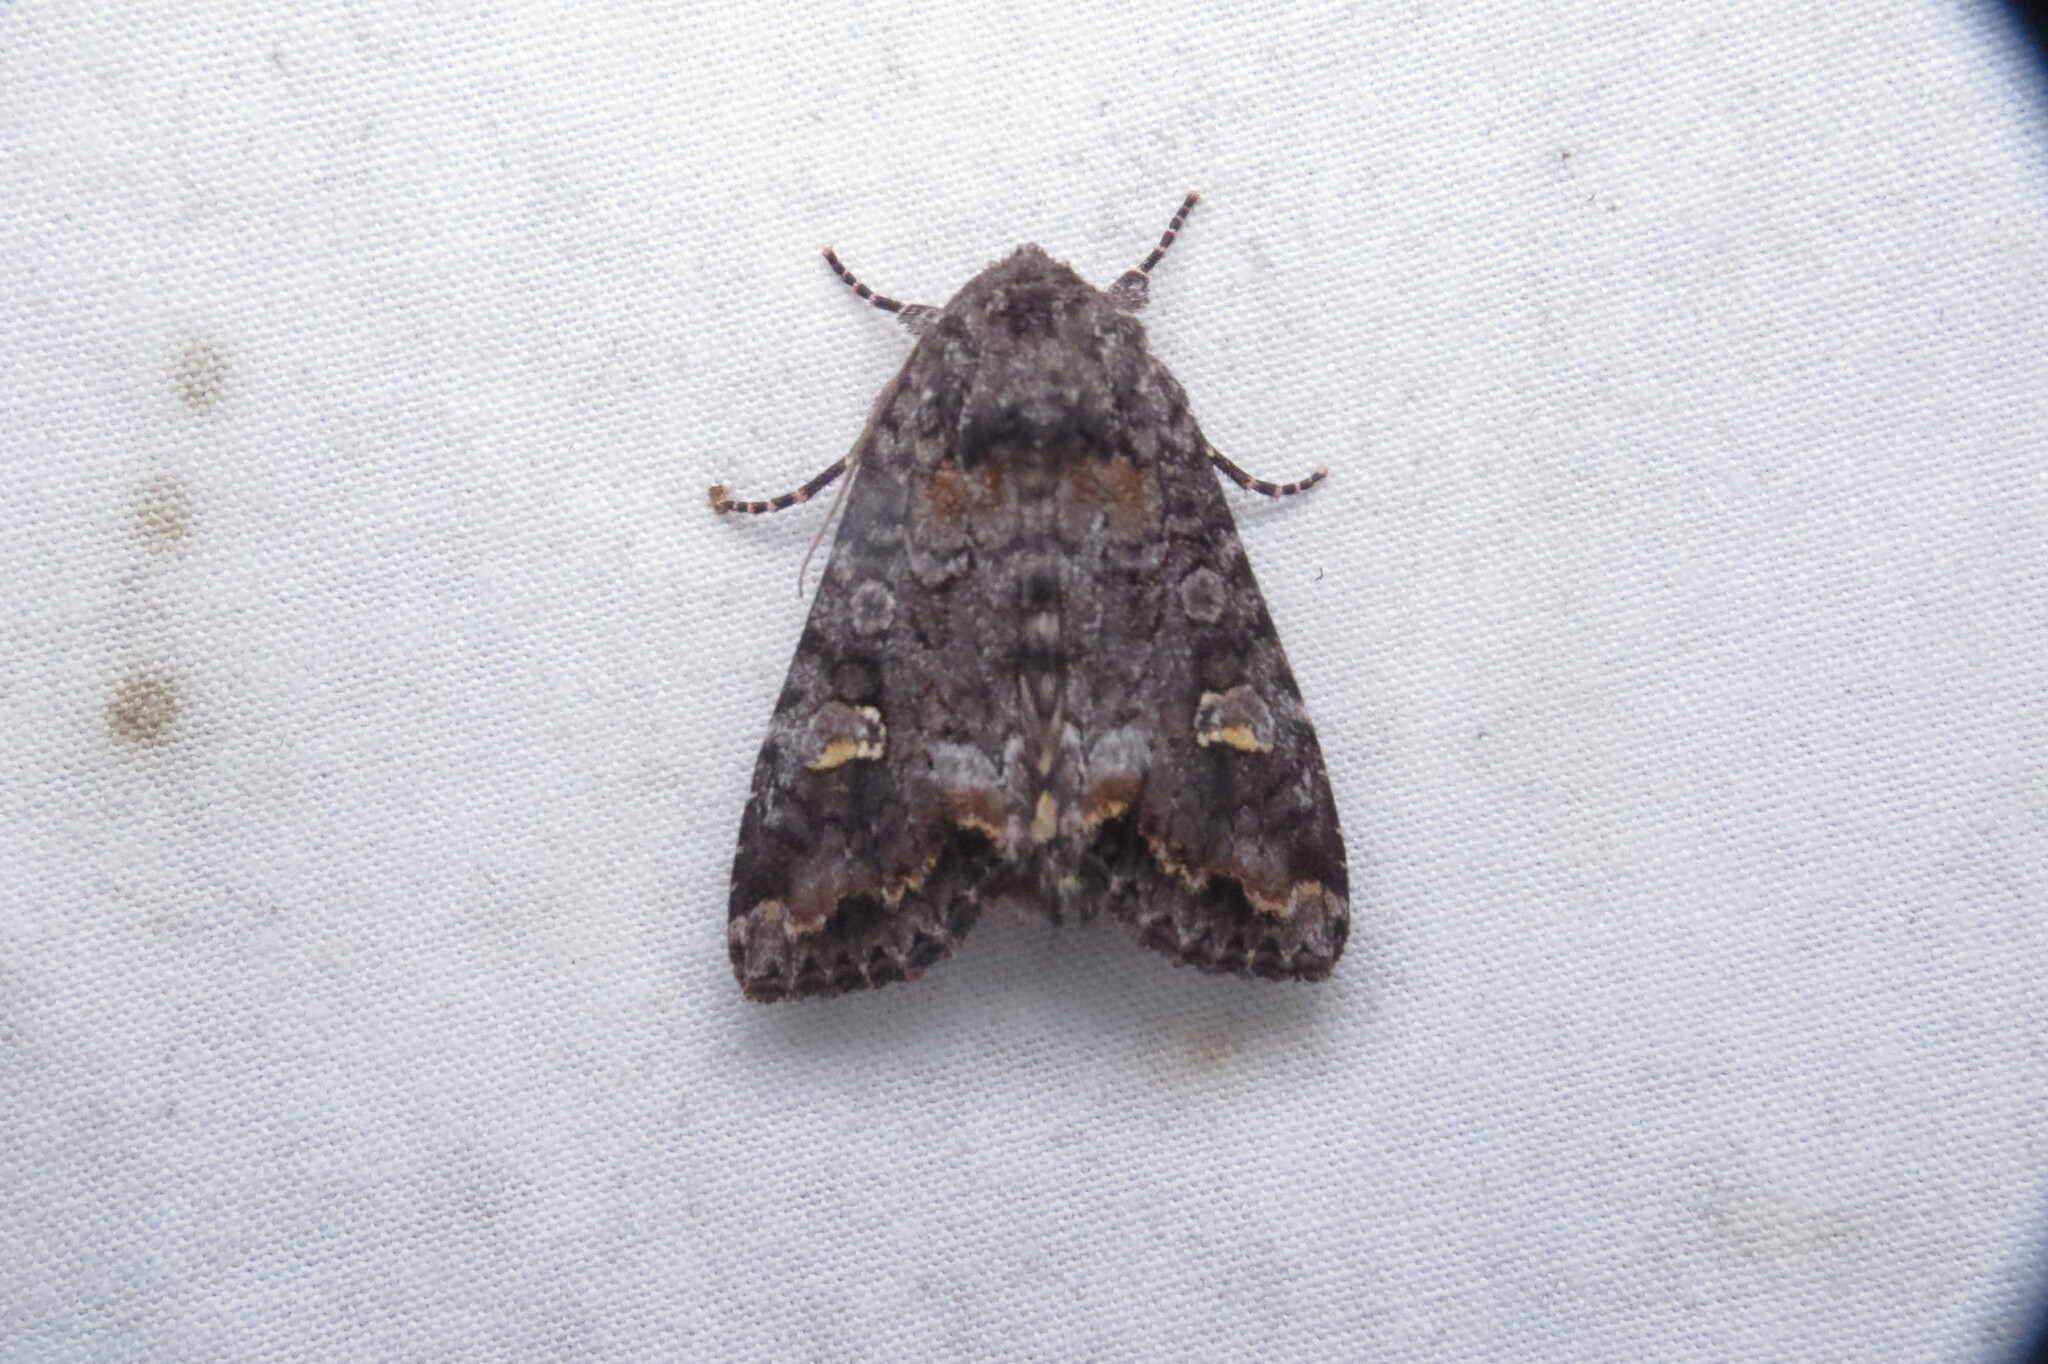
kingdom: Animalia
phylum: Arthropoda
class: Insecta
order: Lepidoptera
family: Noctuidae
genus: Spiramater
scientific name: Spiramater lutra
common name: Otter spiramater moth
